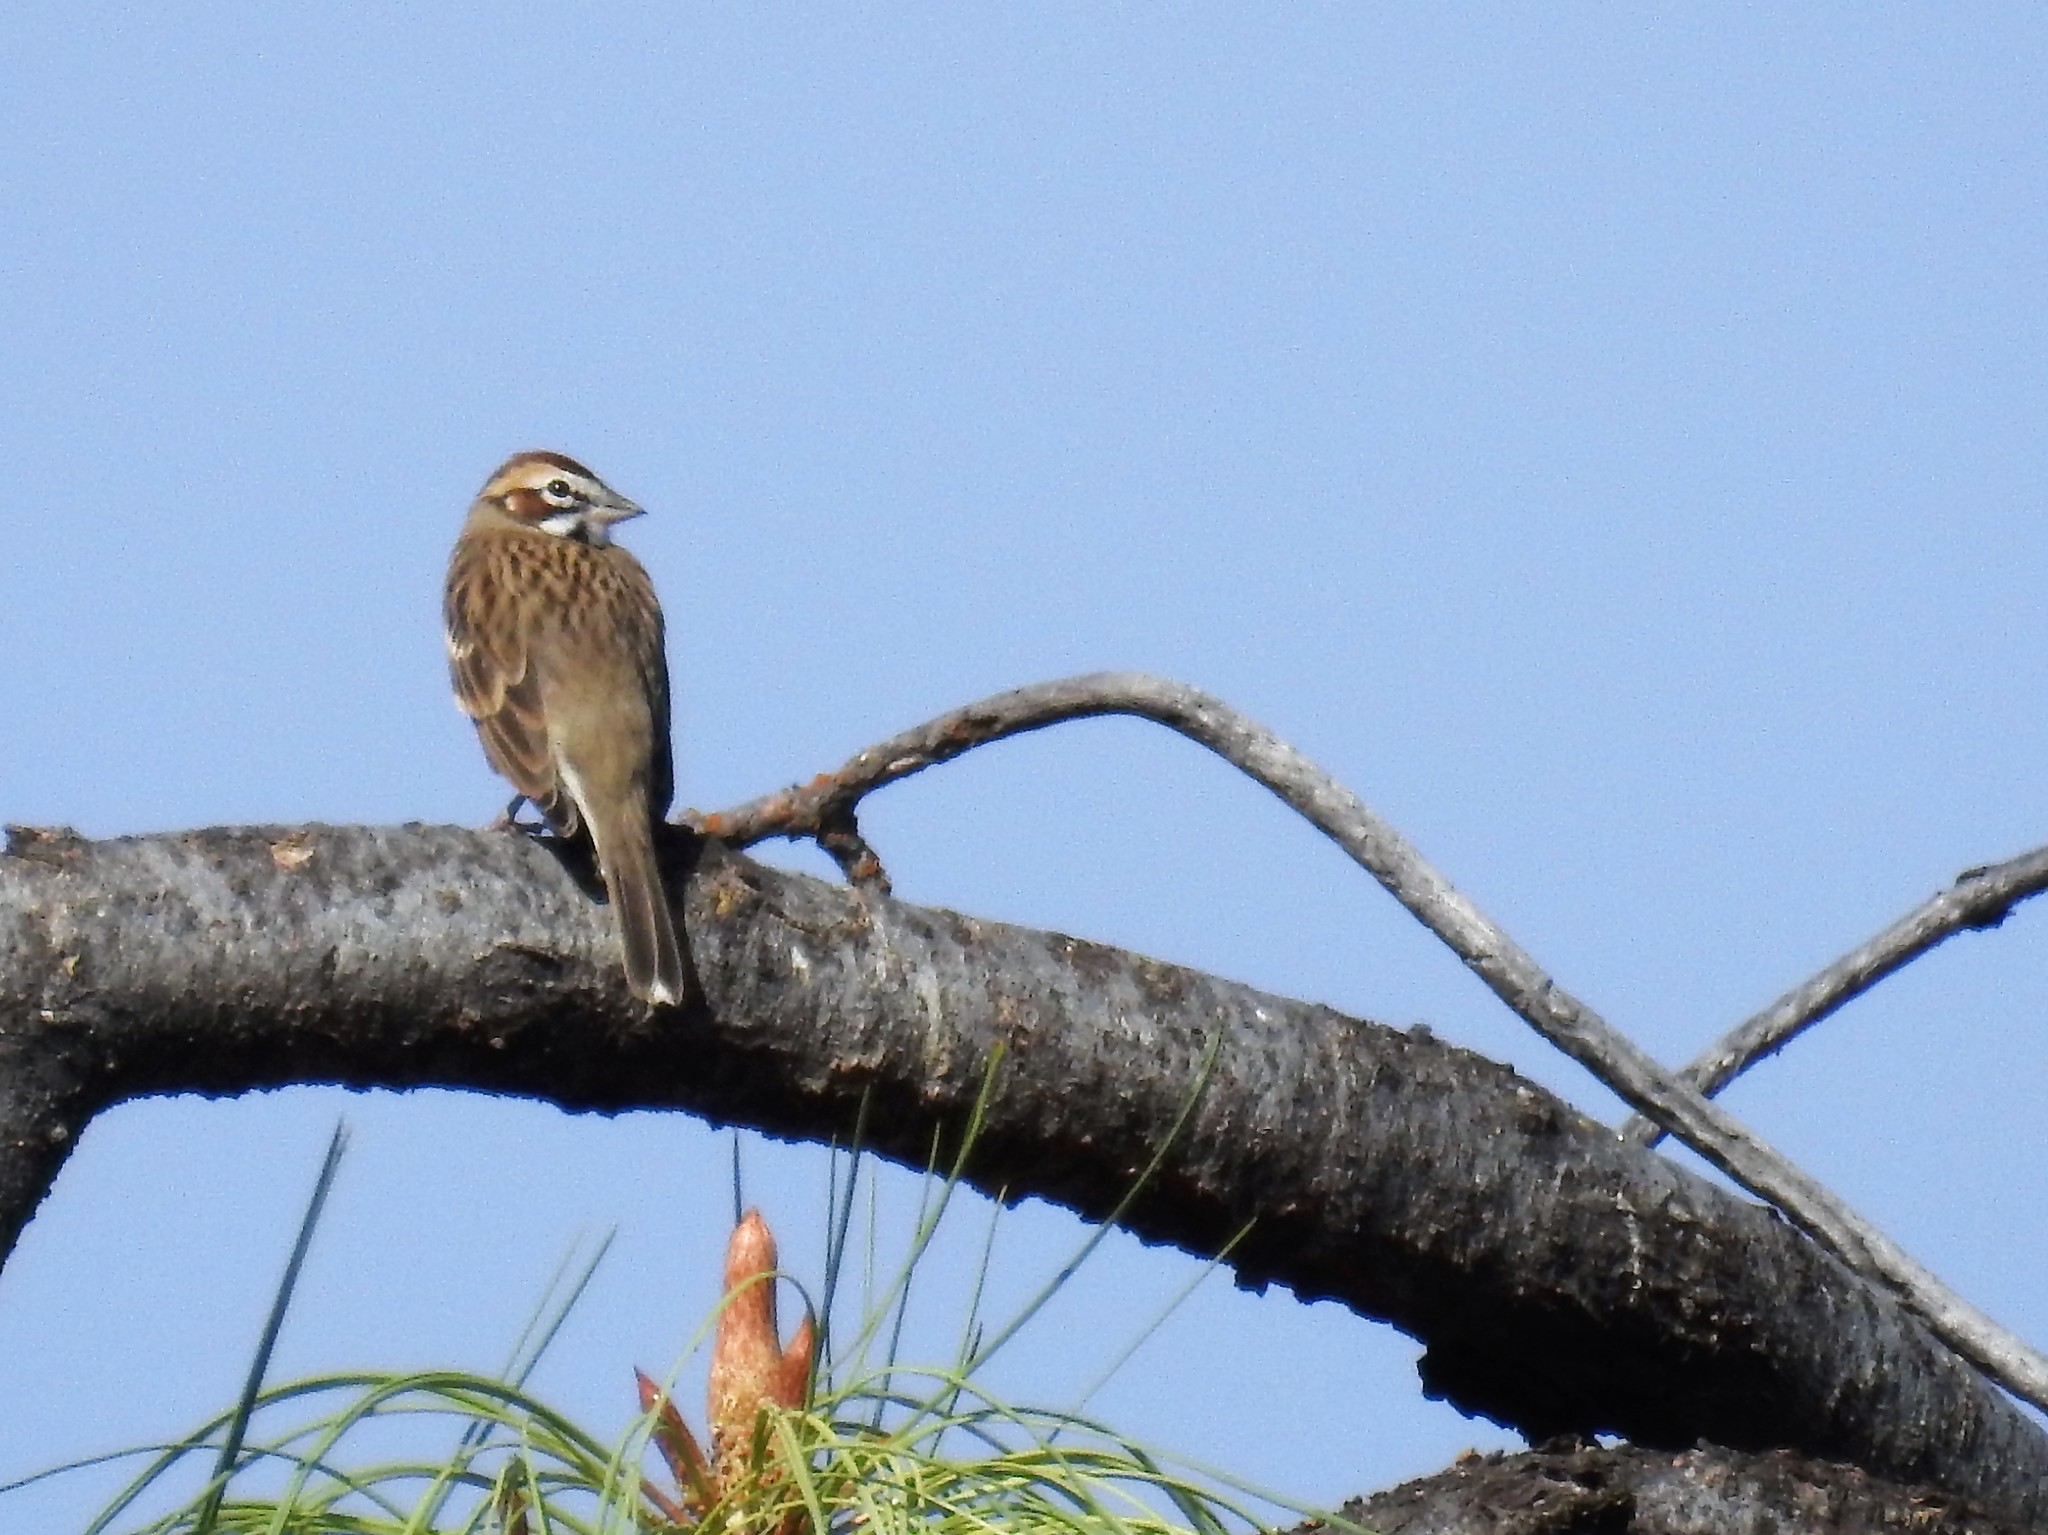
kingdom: Animalia
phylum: Chordata
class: Aves
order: Passeriformes
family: Passerellidae
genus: Chondestes
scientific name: Chondestes grammacus
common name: Lark sparrow
